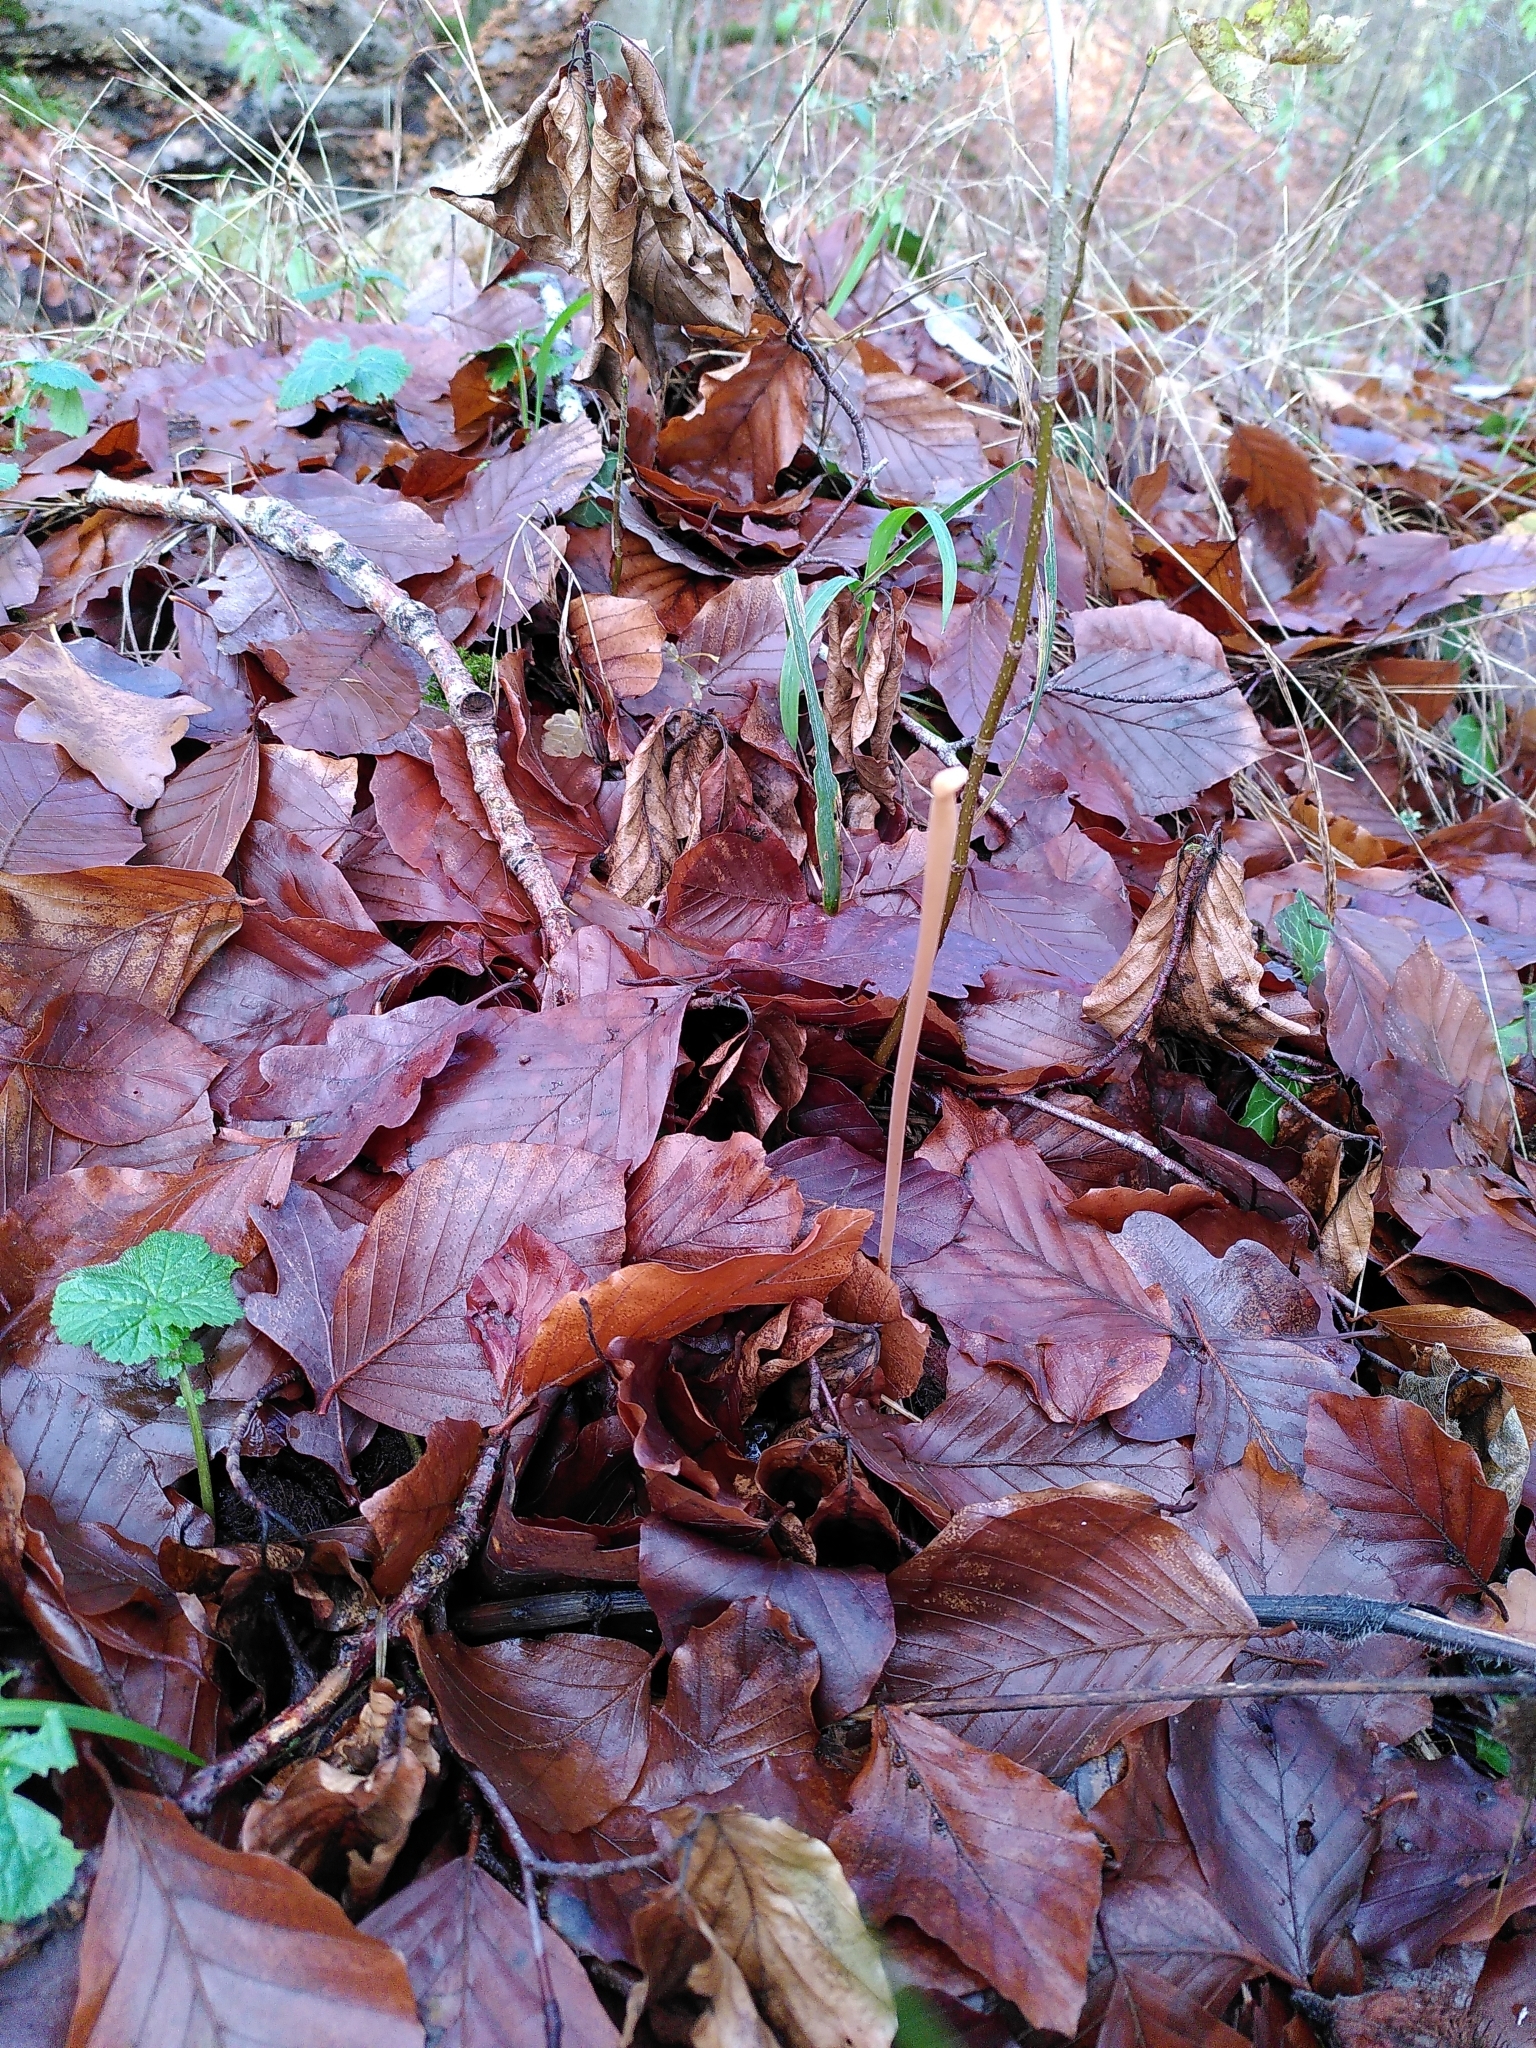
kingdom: Fungi
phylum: Basidiomycota
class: Agaricomycetes
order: Agaricales
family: Typhulaceae
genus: Typhula
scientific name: Typhula fistulosa
